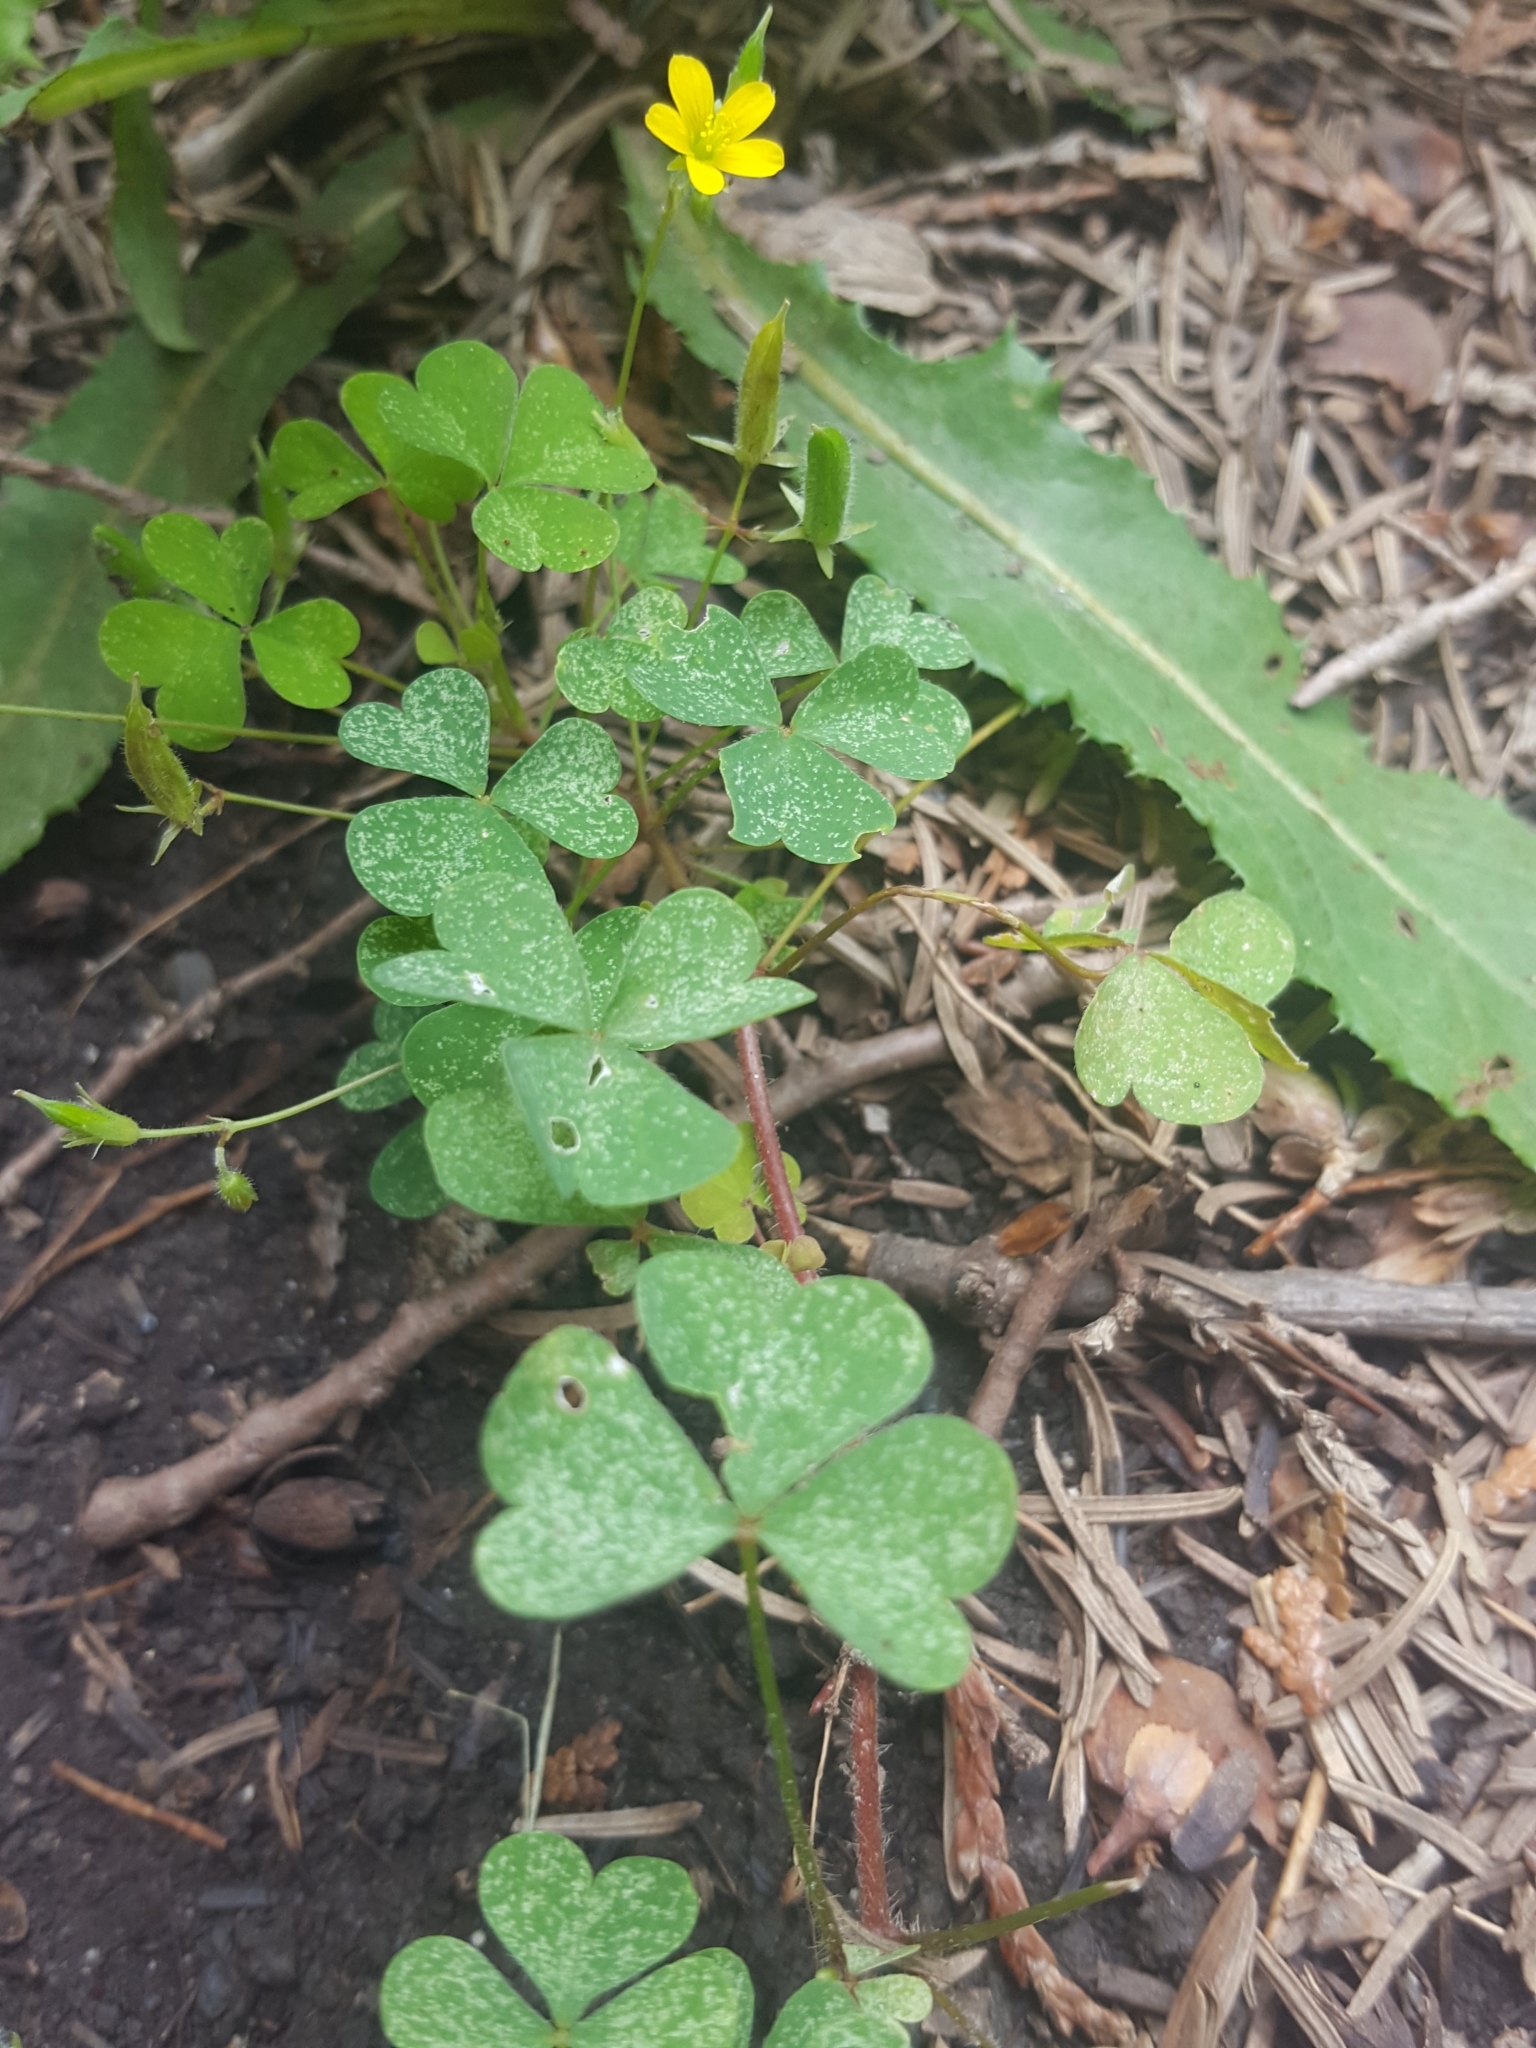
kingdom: Plantae
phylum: Tracheophyta
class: Magnoliopsida
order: Oxalidales
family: Oxalidaceae
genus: Oxalis
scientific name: Oxalis stricta
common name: Upright yellow-sorrel
